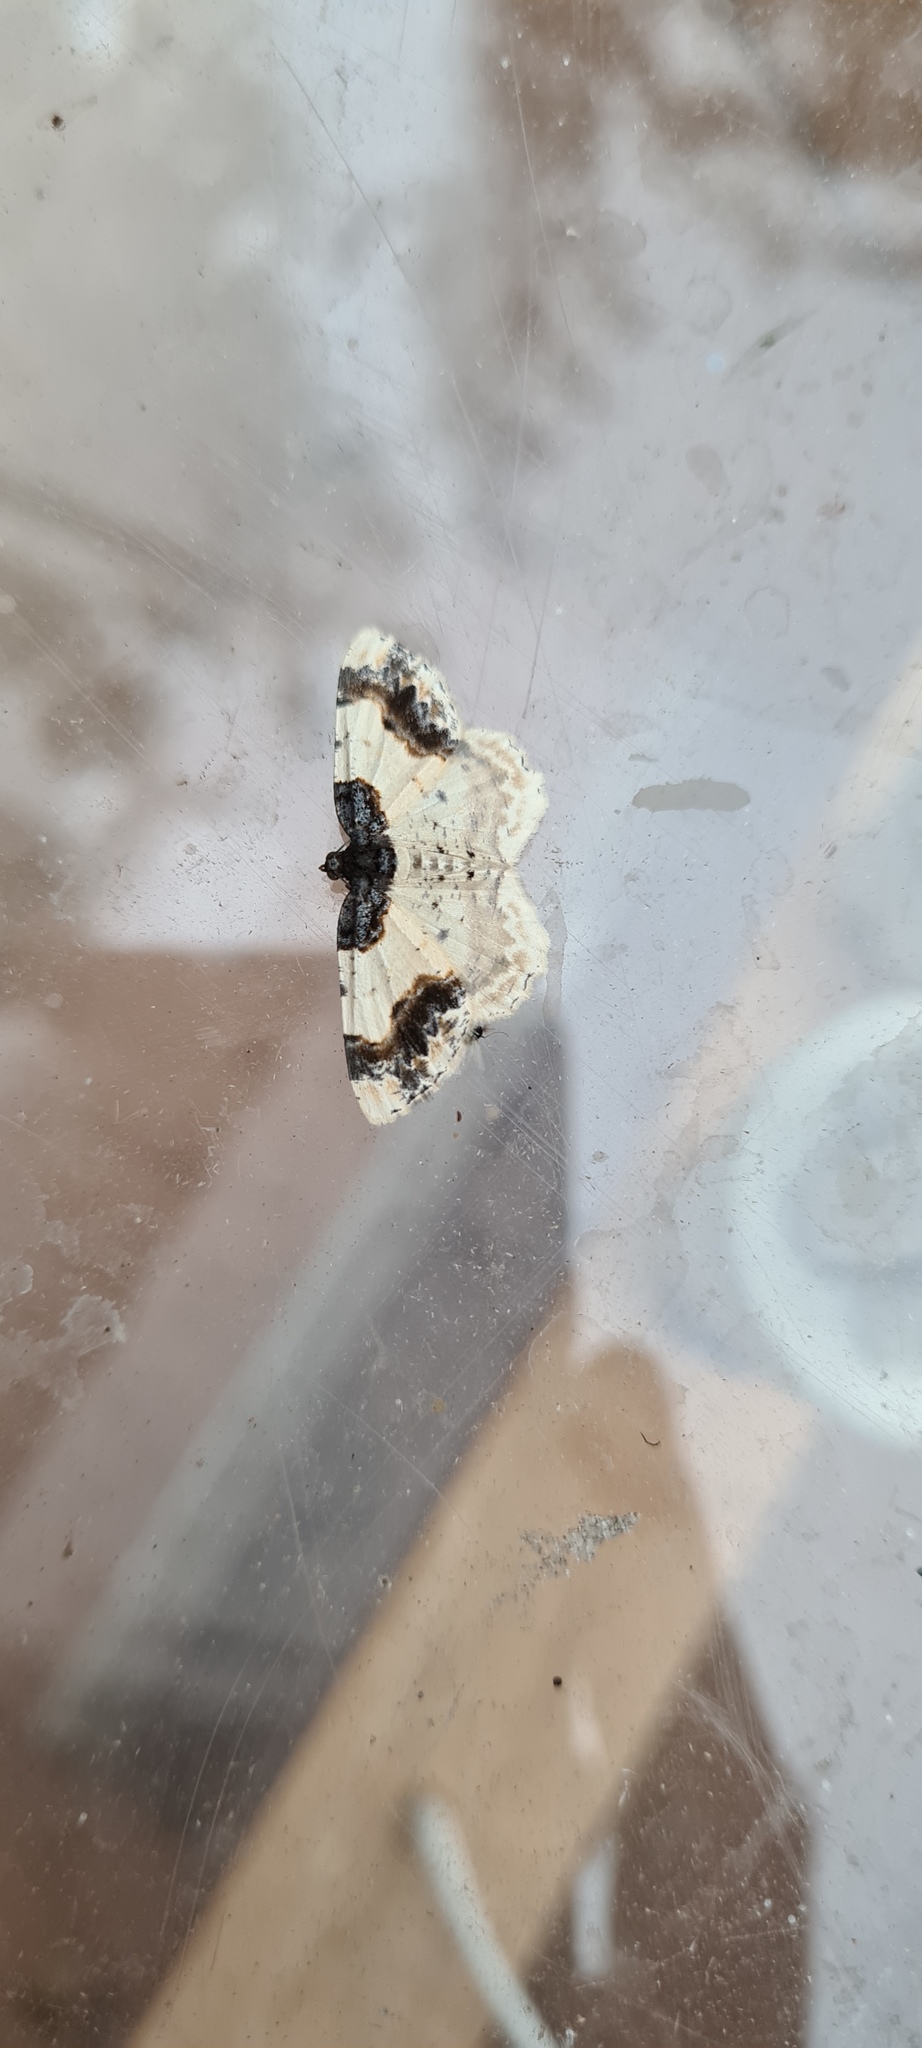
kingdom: Animalia
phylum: Arthropoda
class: Insecta
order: Lepidoptera
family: Geometridae
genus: Ligdia
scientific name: Ligdia adustata
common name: Scorched carpet
